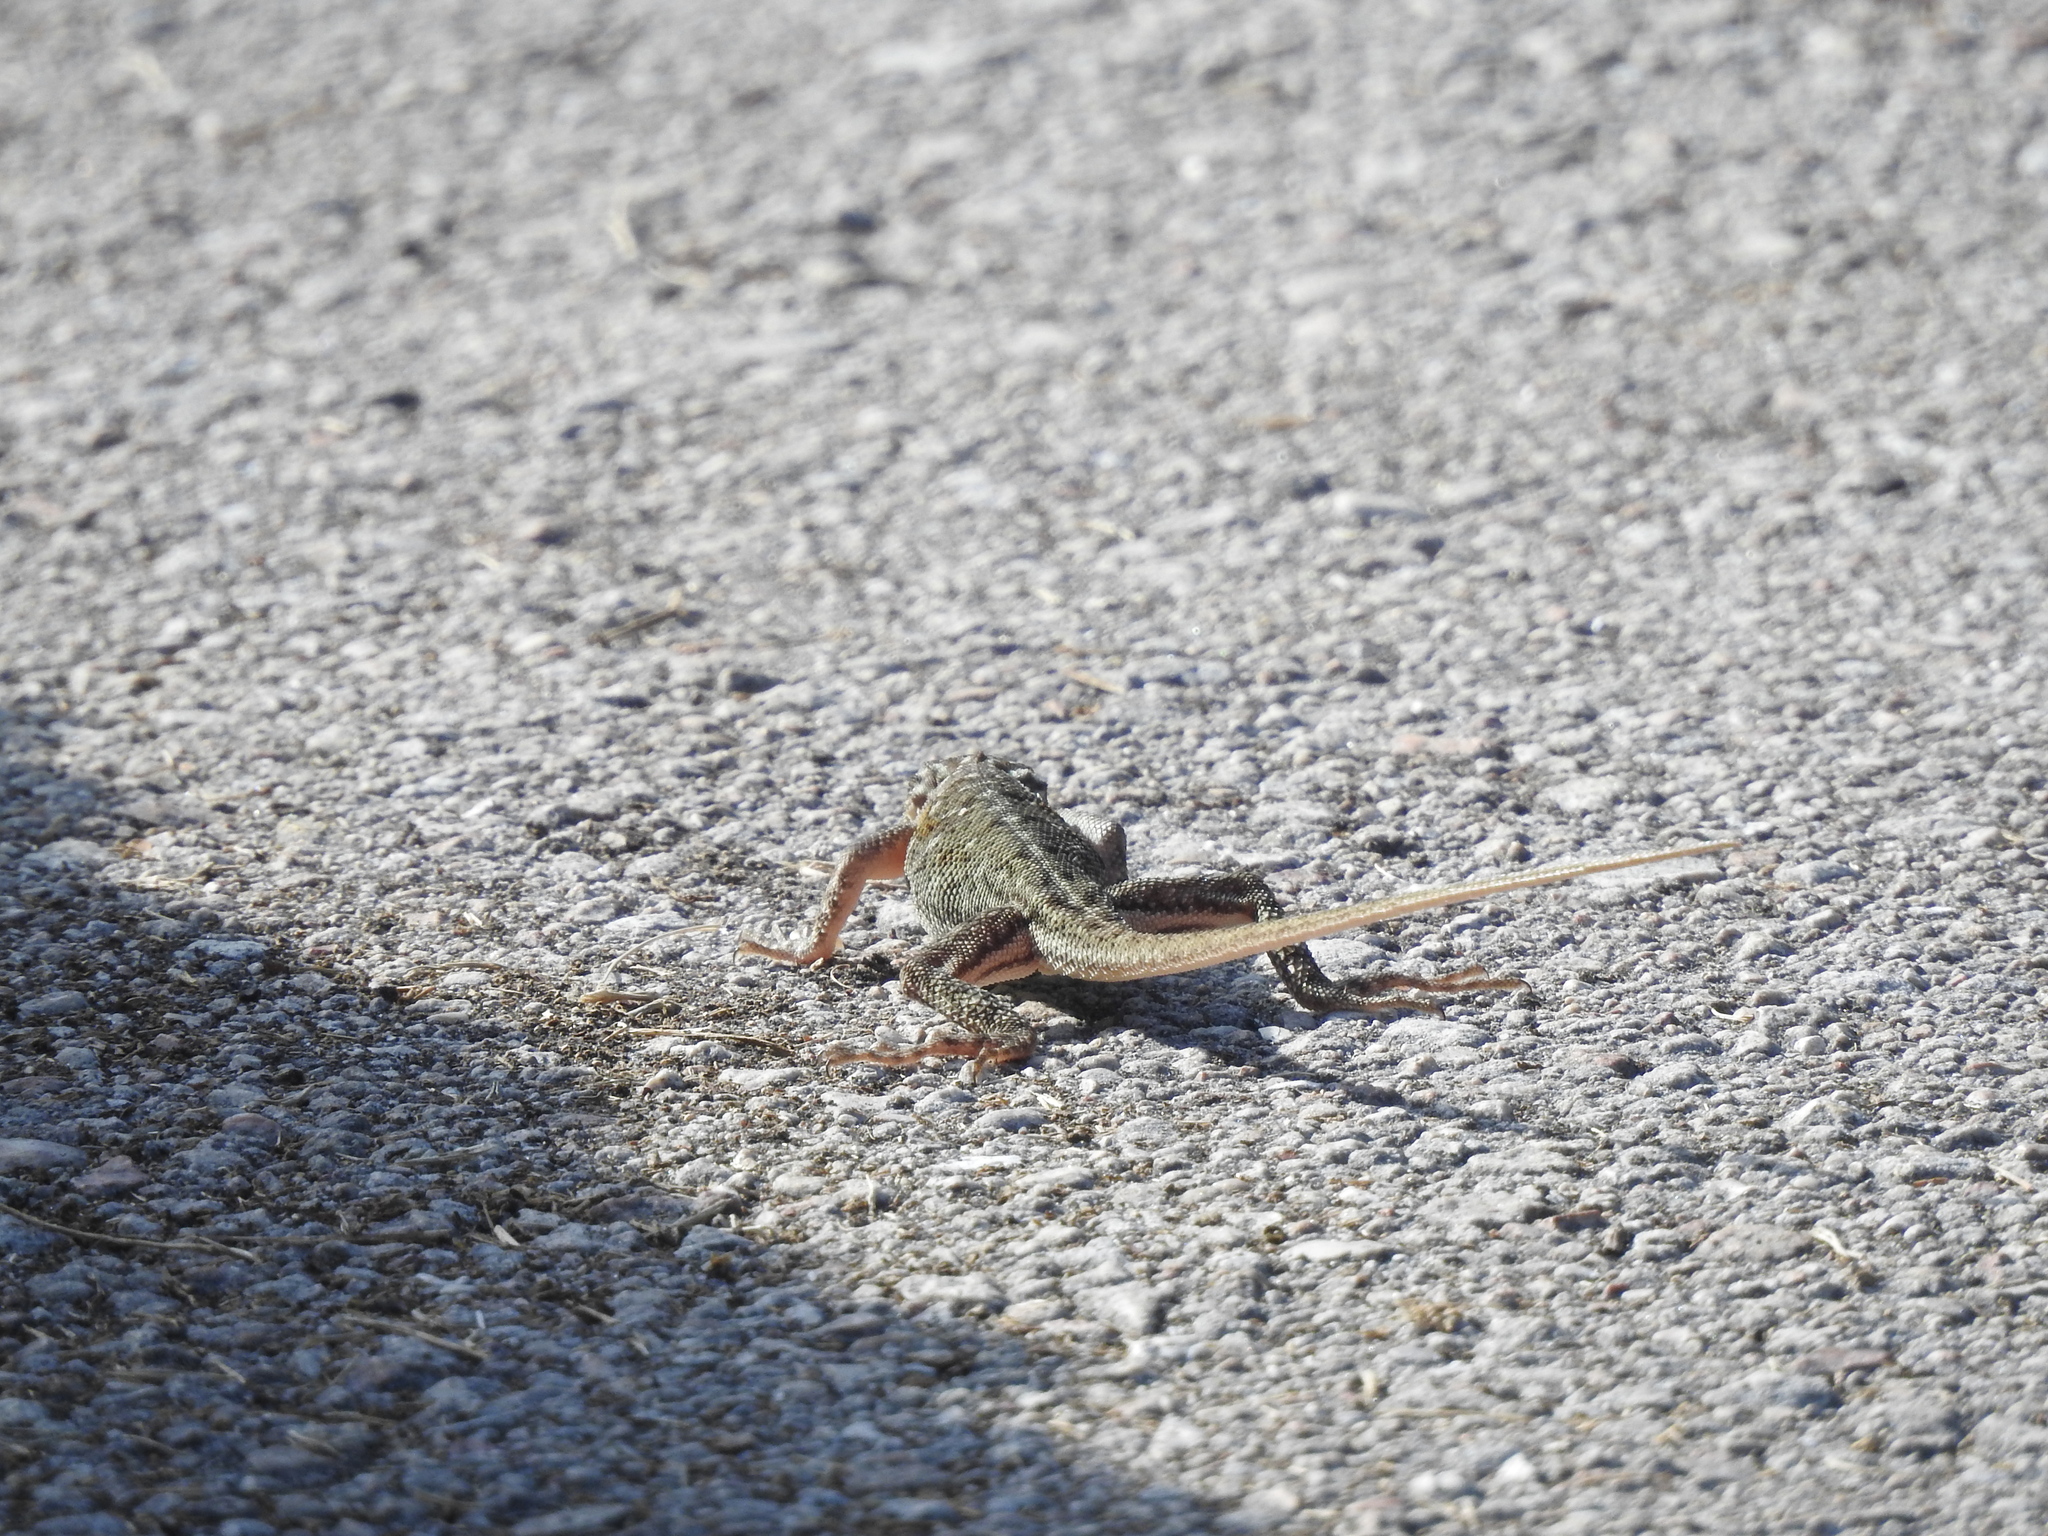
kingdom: Animalia
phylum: Chordata
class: Squamata
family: Agamidae
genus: Agama
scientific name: Agama picticauda
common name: Red-headed agama
